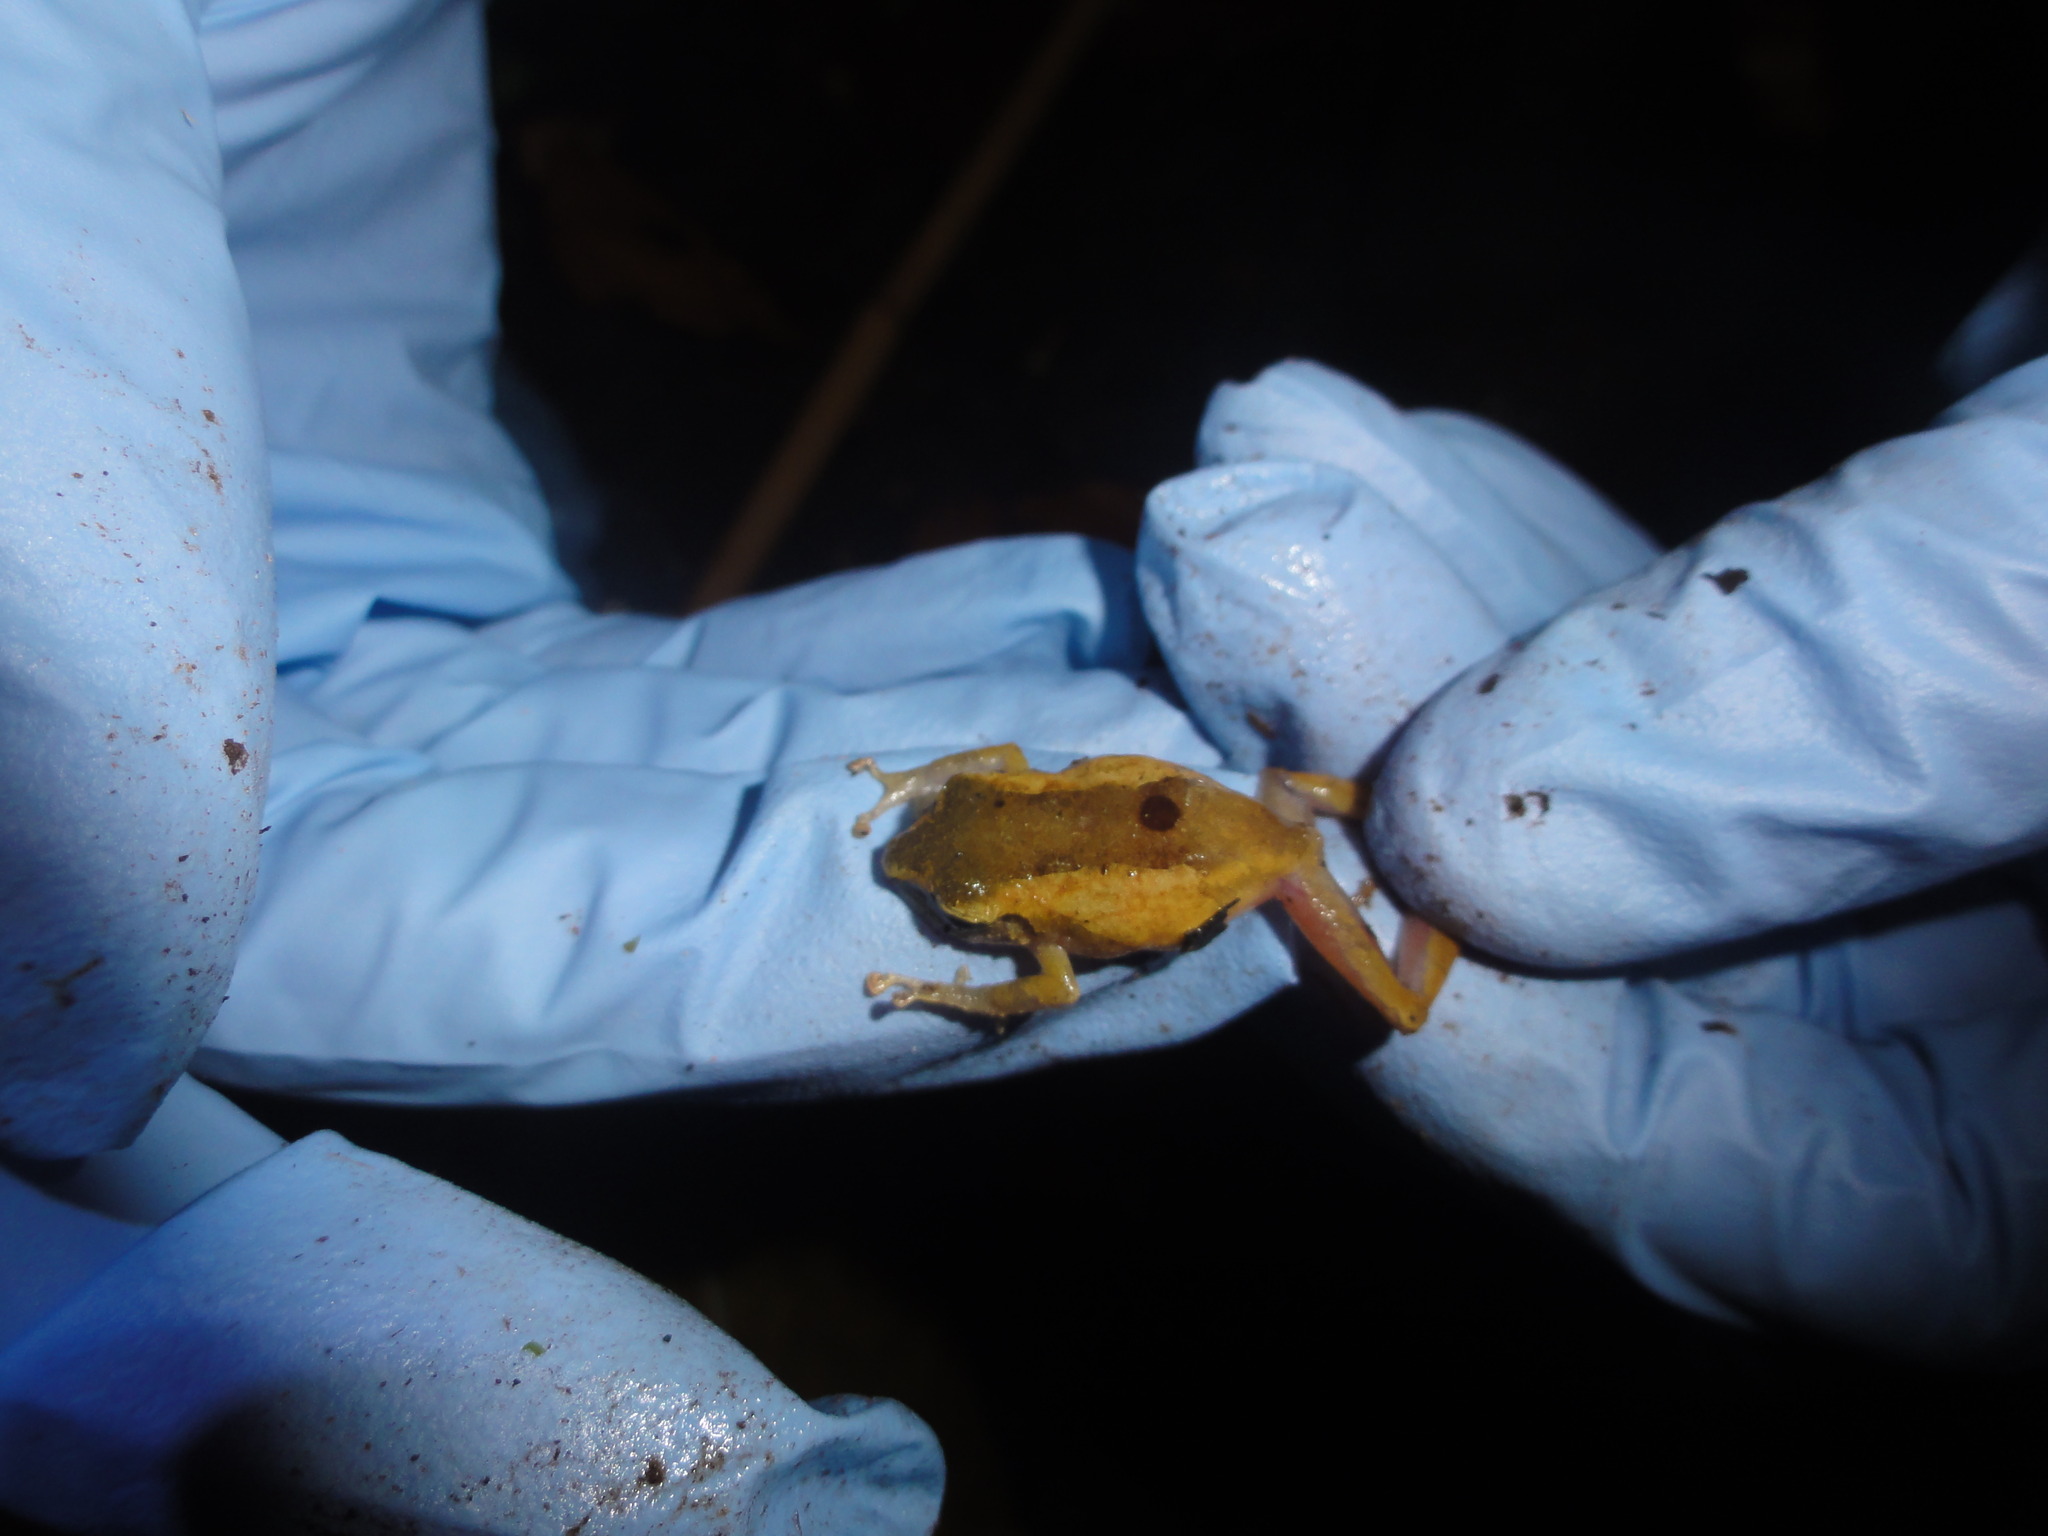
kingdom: Animalia
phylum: Chordata
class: Amphibia
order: Anura
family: Craugastoridae
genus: Pristimantis
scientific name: Pristimantis ridens
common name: Rio san juan robber frog
